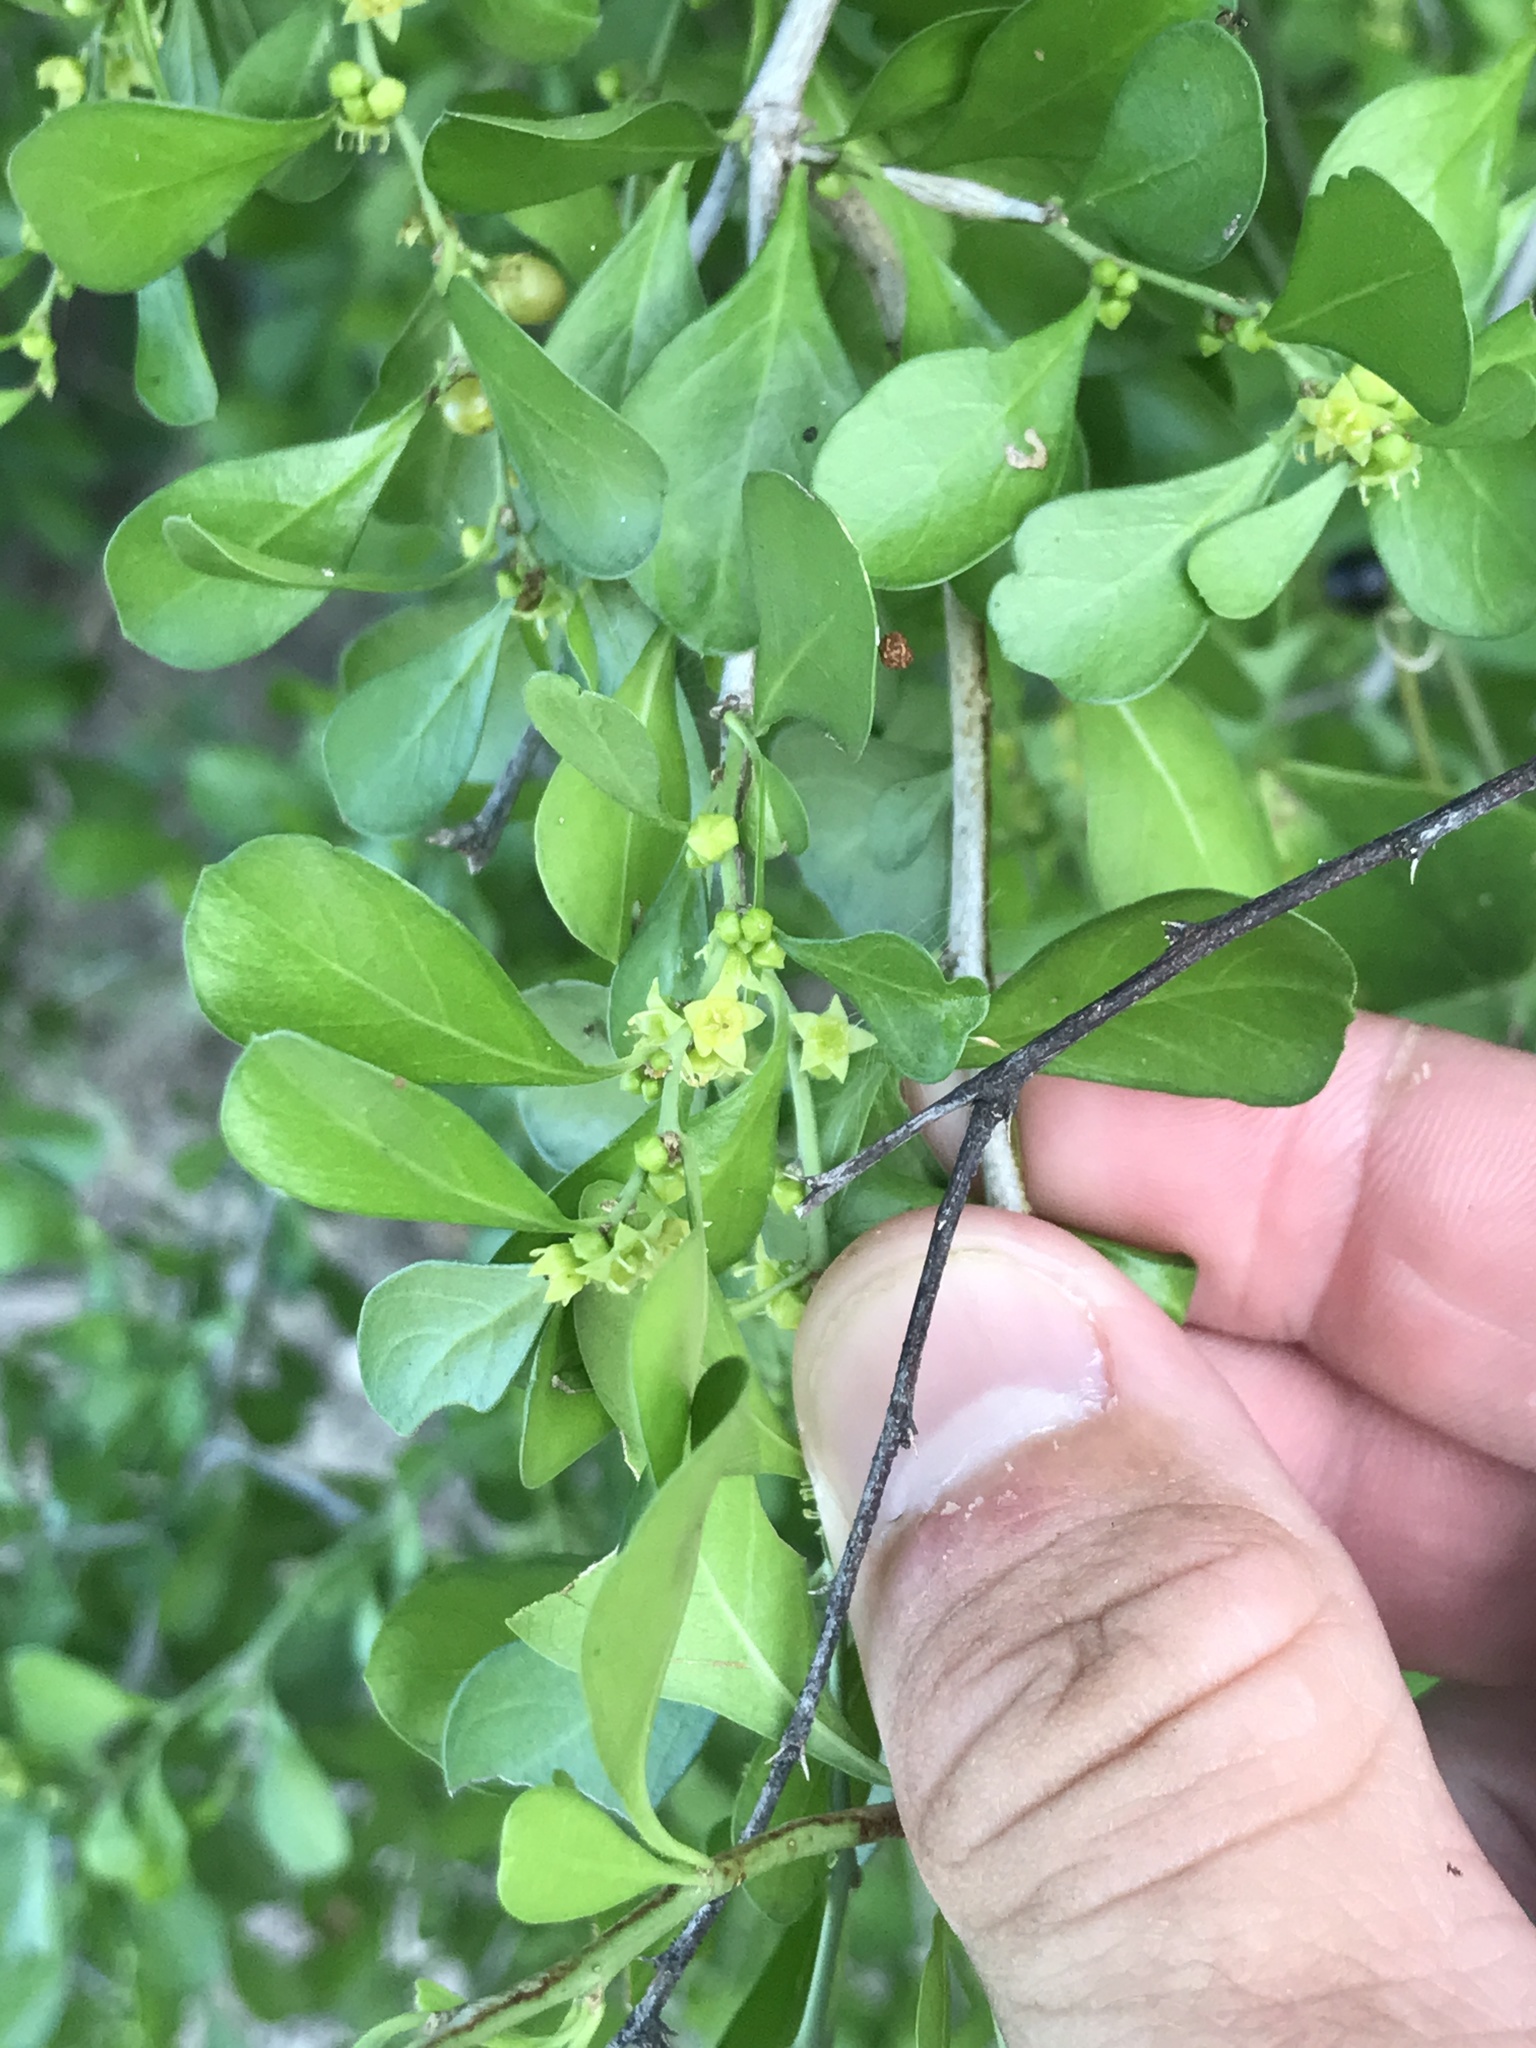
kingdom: Plantae
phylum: Tracheophyta
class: Magnoliopsida
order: Rosales
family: Rhamnaceae
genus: Condalia
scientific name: Condalia hookeri
